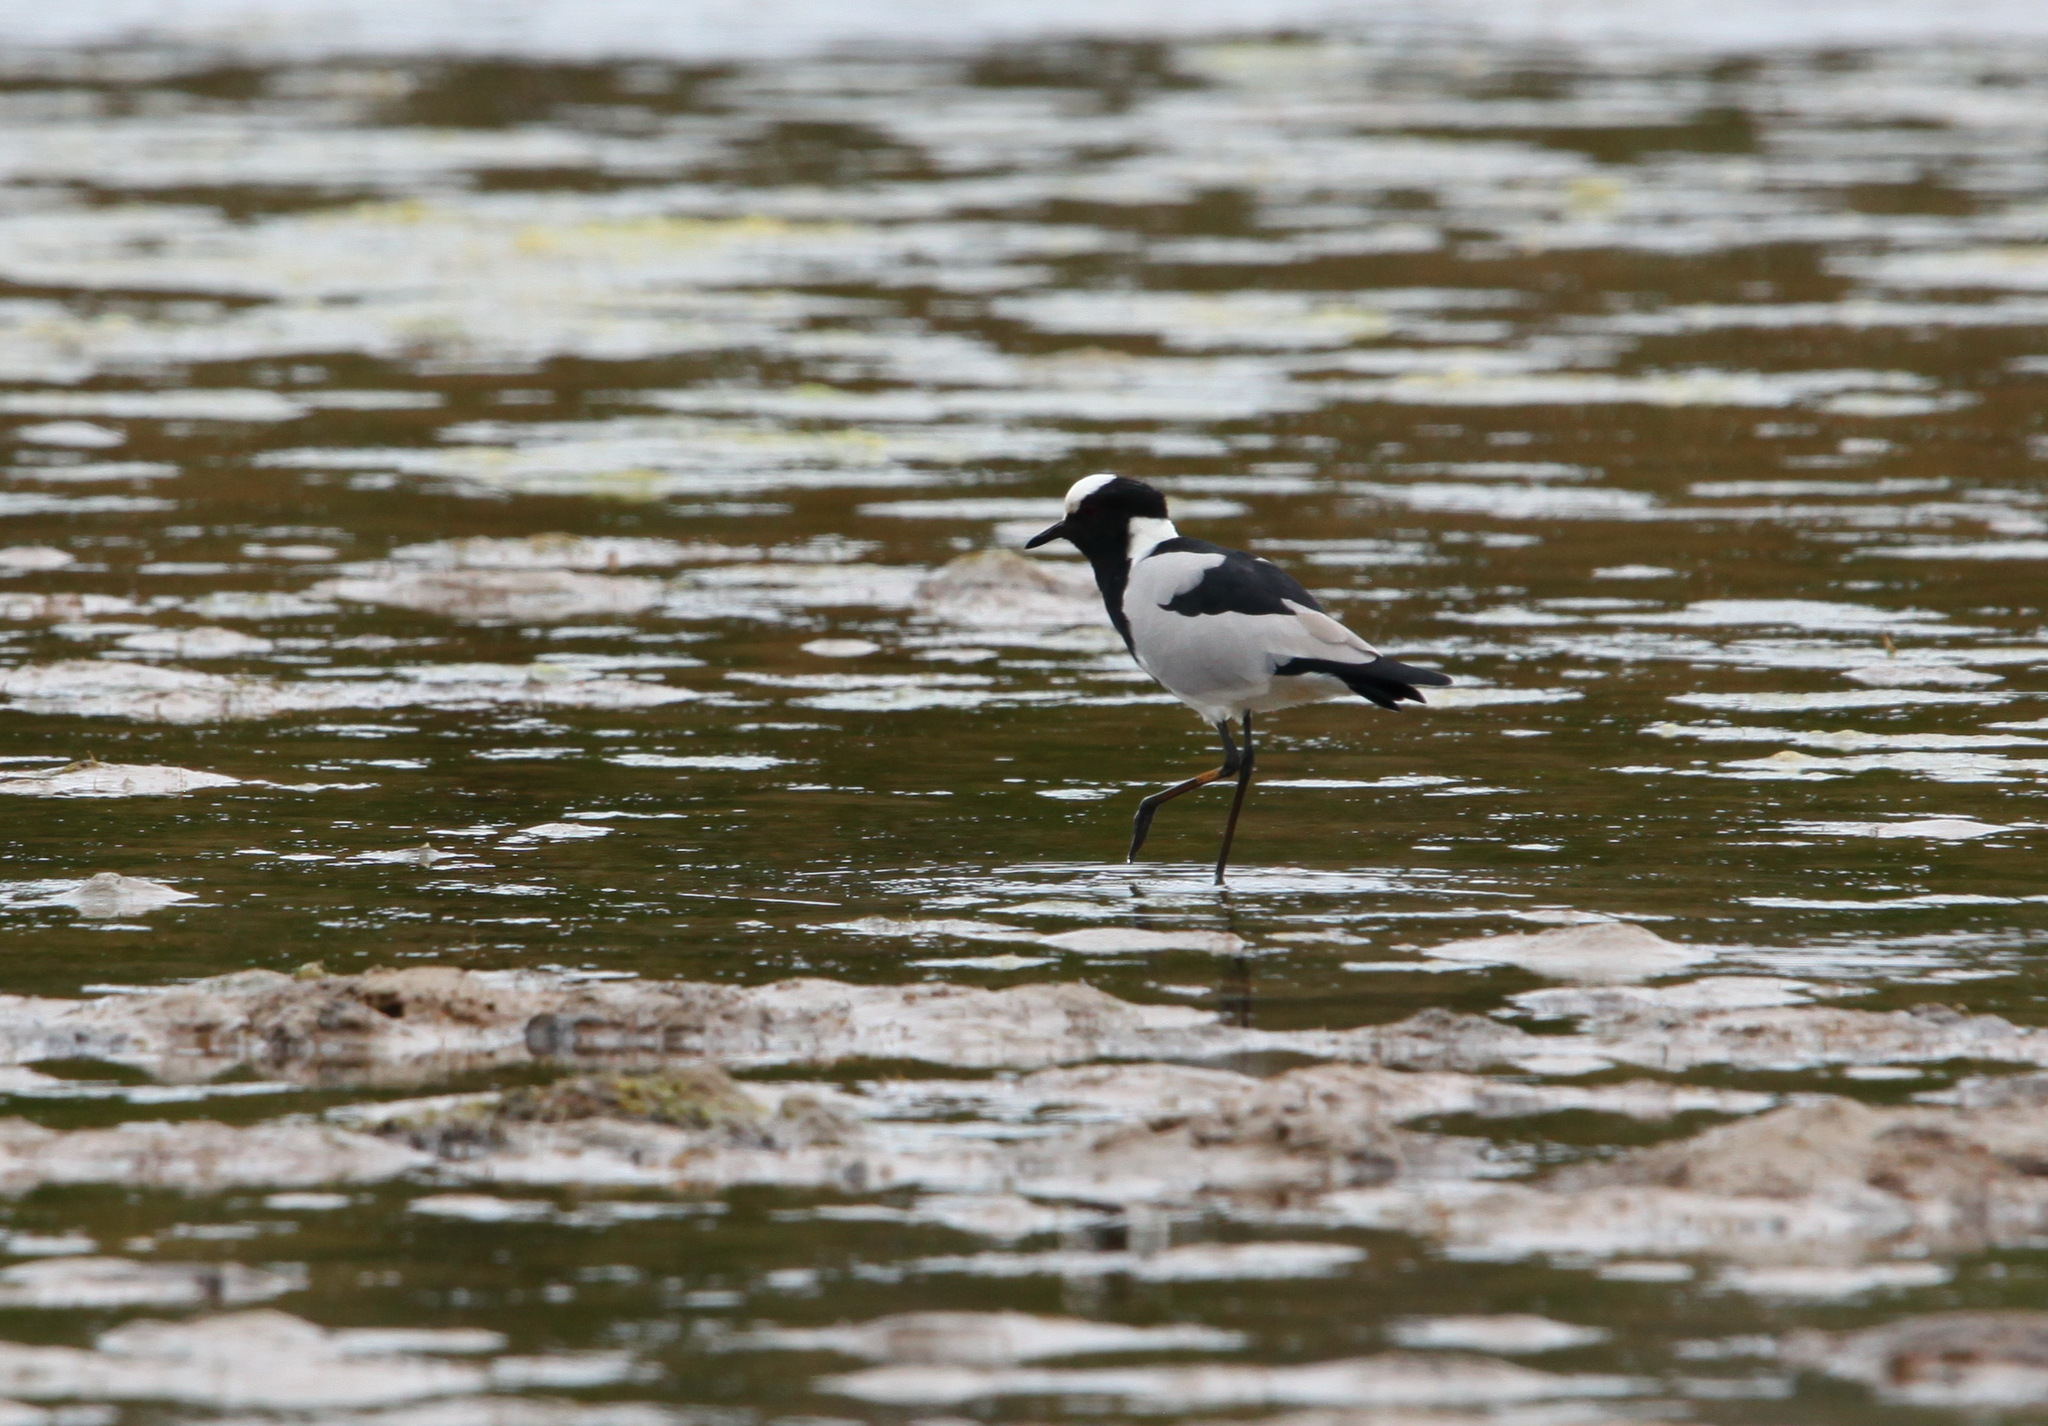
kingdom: Animalia
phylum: Chordata
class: Aves
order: Charadriiformes
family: Charadriidae
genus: Vanellus
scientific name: Vanellus armatus
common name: Blacksmith lapwing
